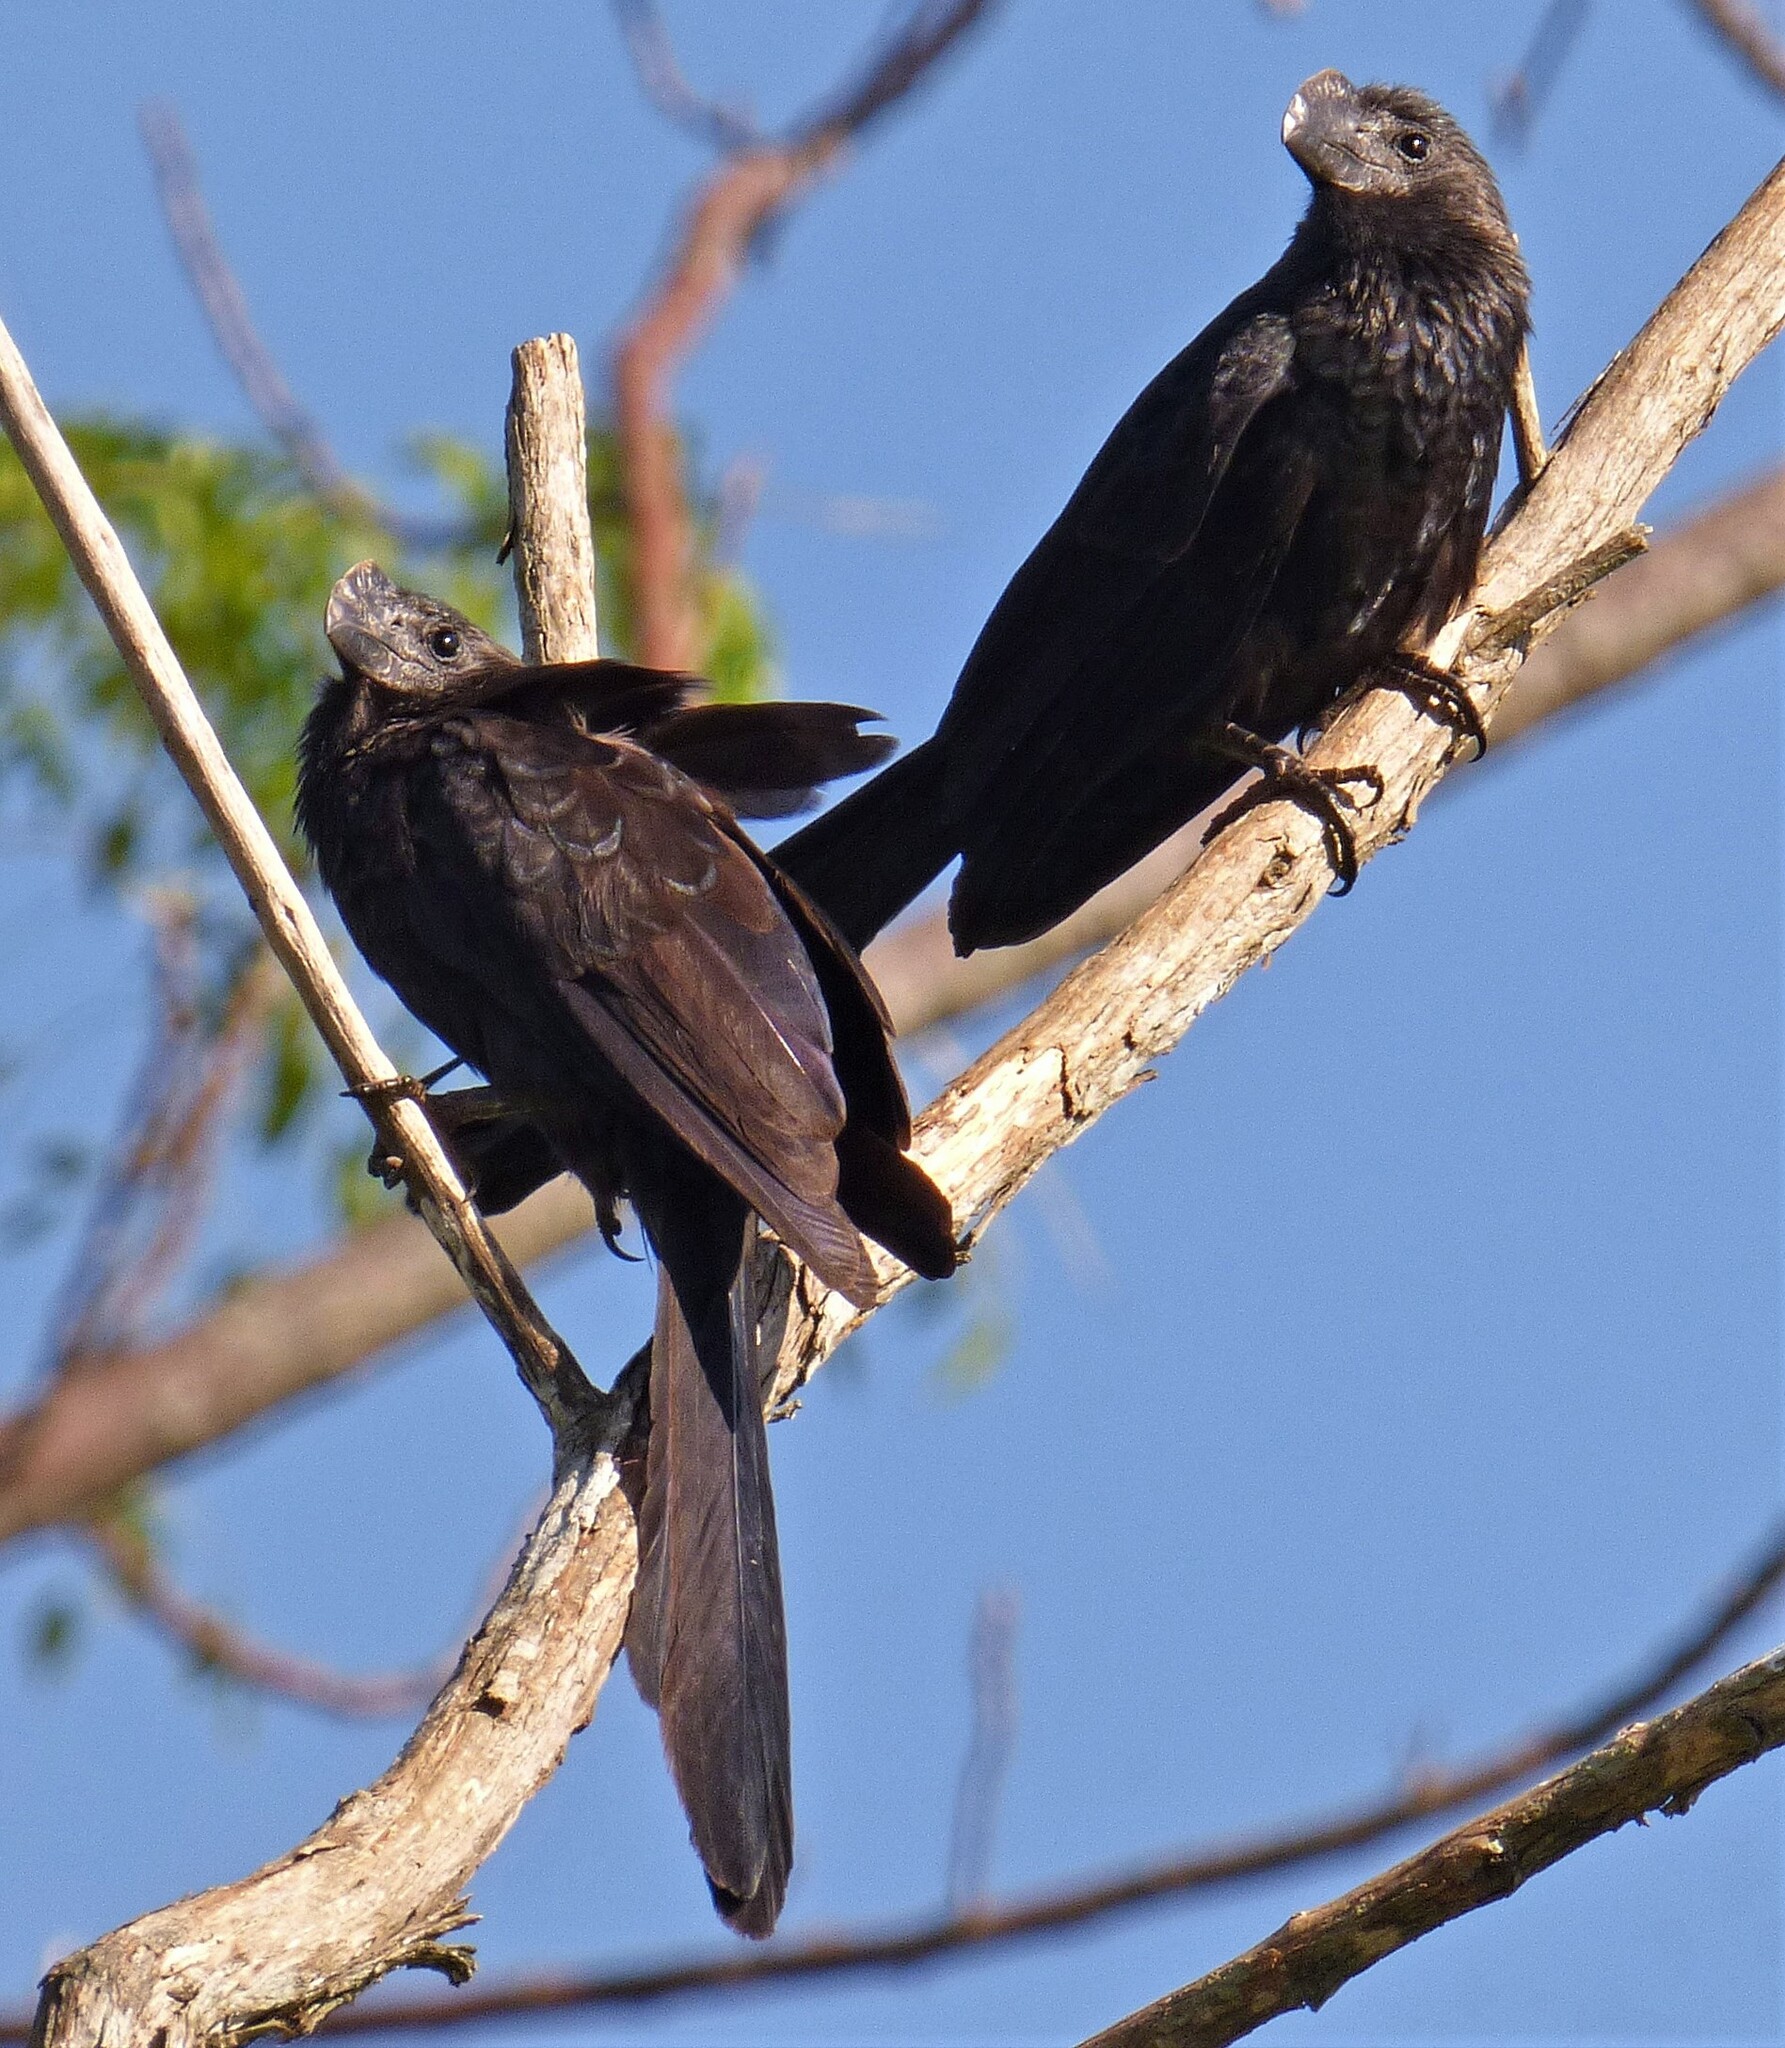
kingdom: Animalia
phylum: Chordata
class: Aves
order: Cuculiformes
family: Cuculidae
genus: Crotophaga
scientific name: Crotophaga ani
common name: Smooth-billed ani
